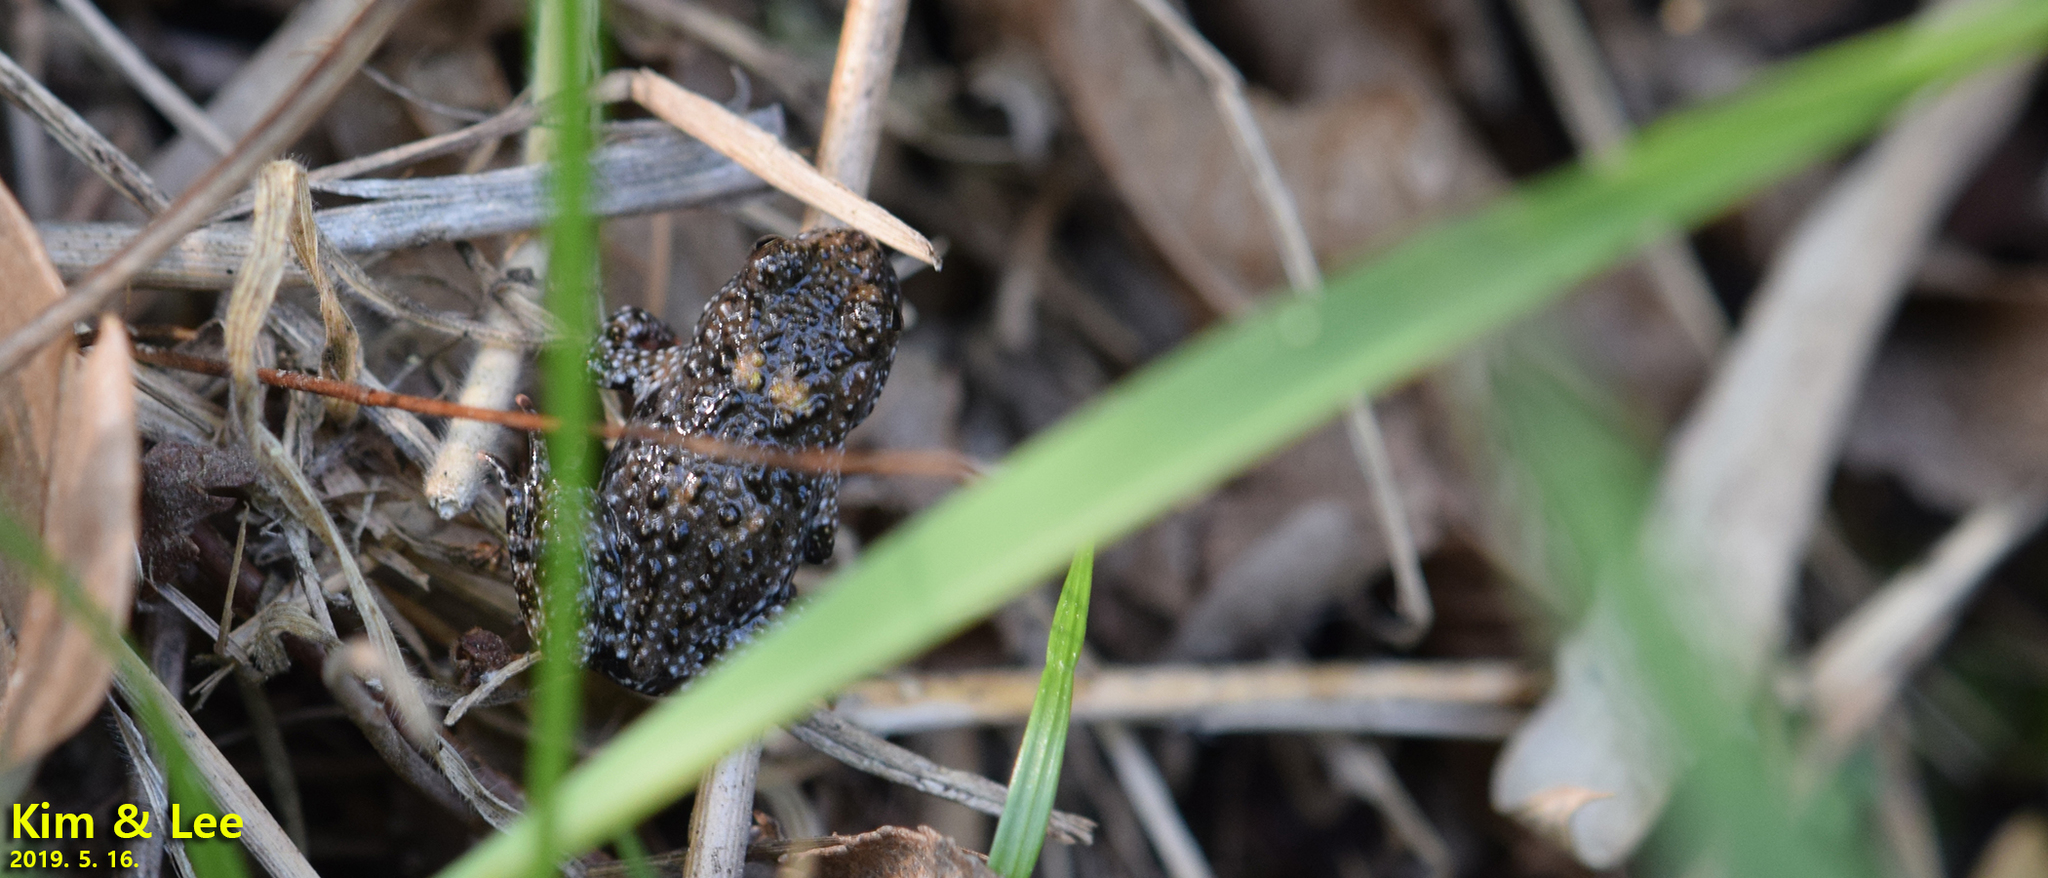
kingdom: Animalia
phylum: Chordata
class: Amphibia
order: Anura
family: Bombinatoridae
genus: Bombina
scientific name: Bombina orientalis
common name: Oriental firebelly toad
